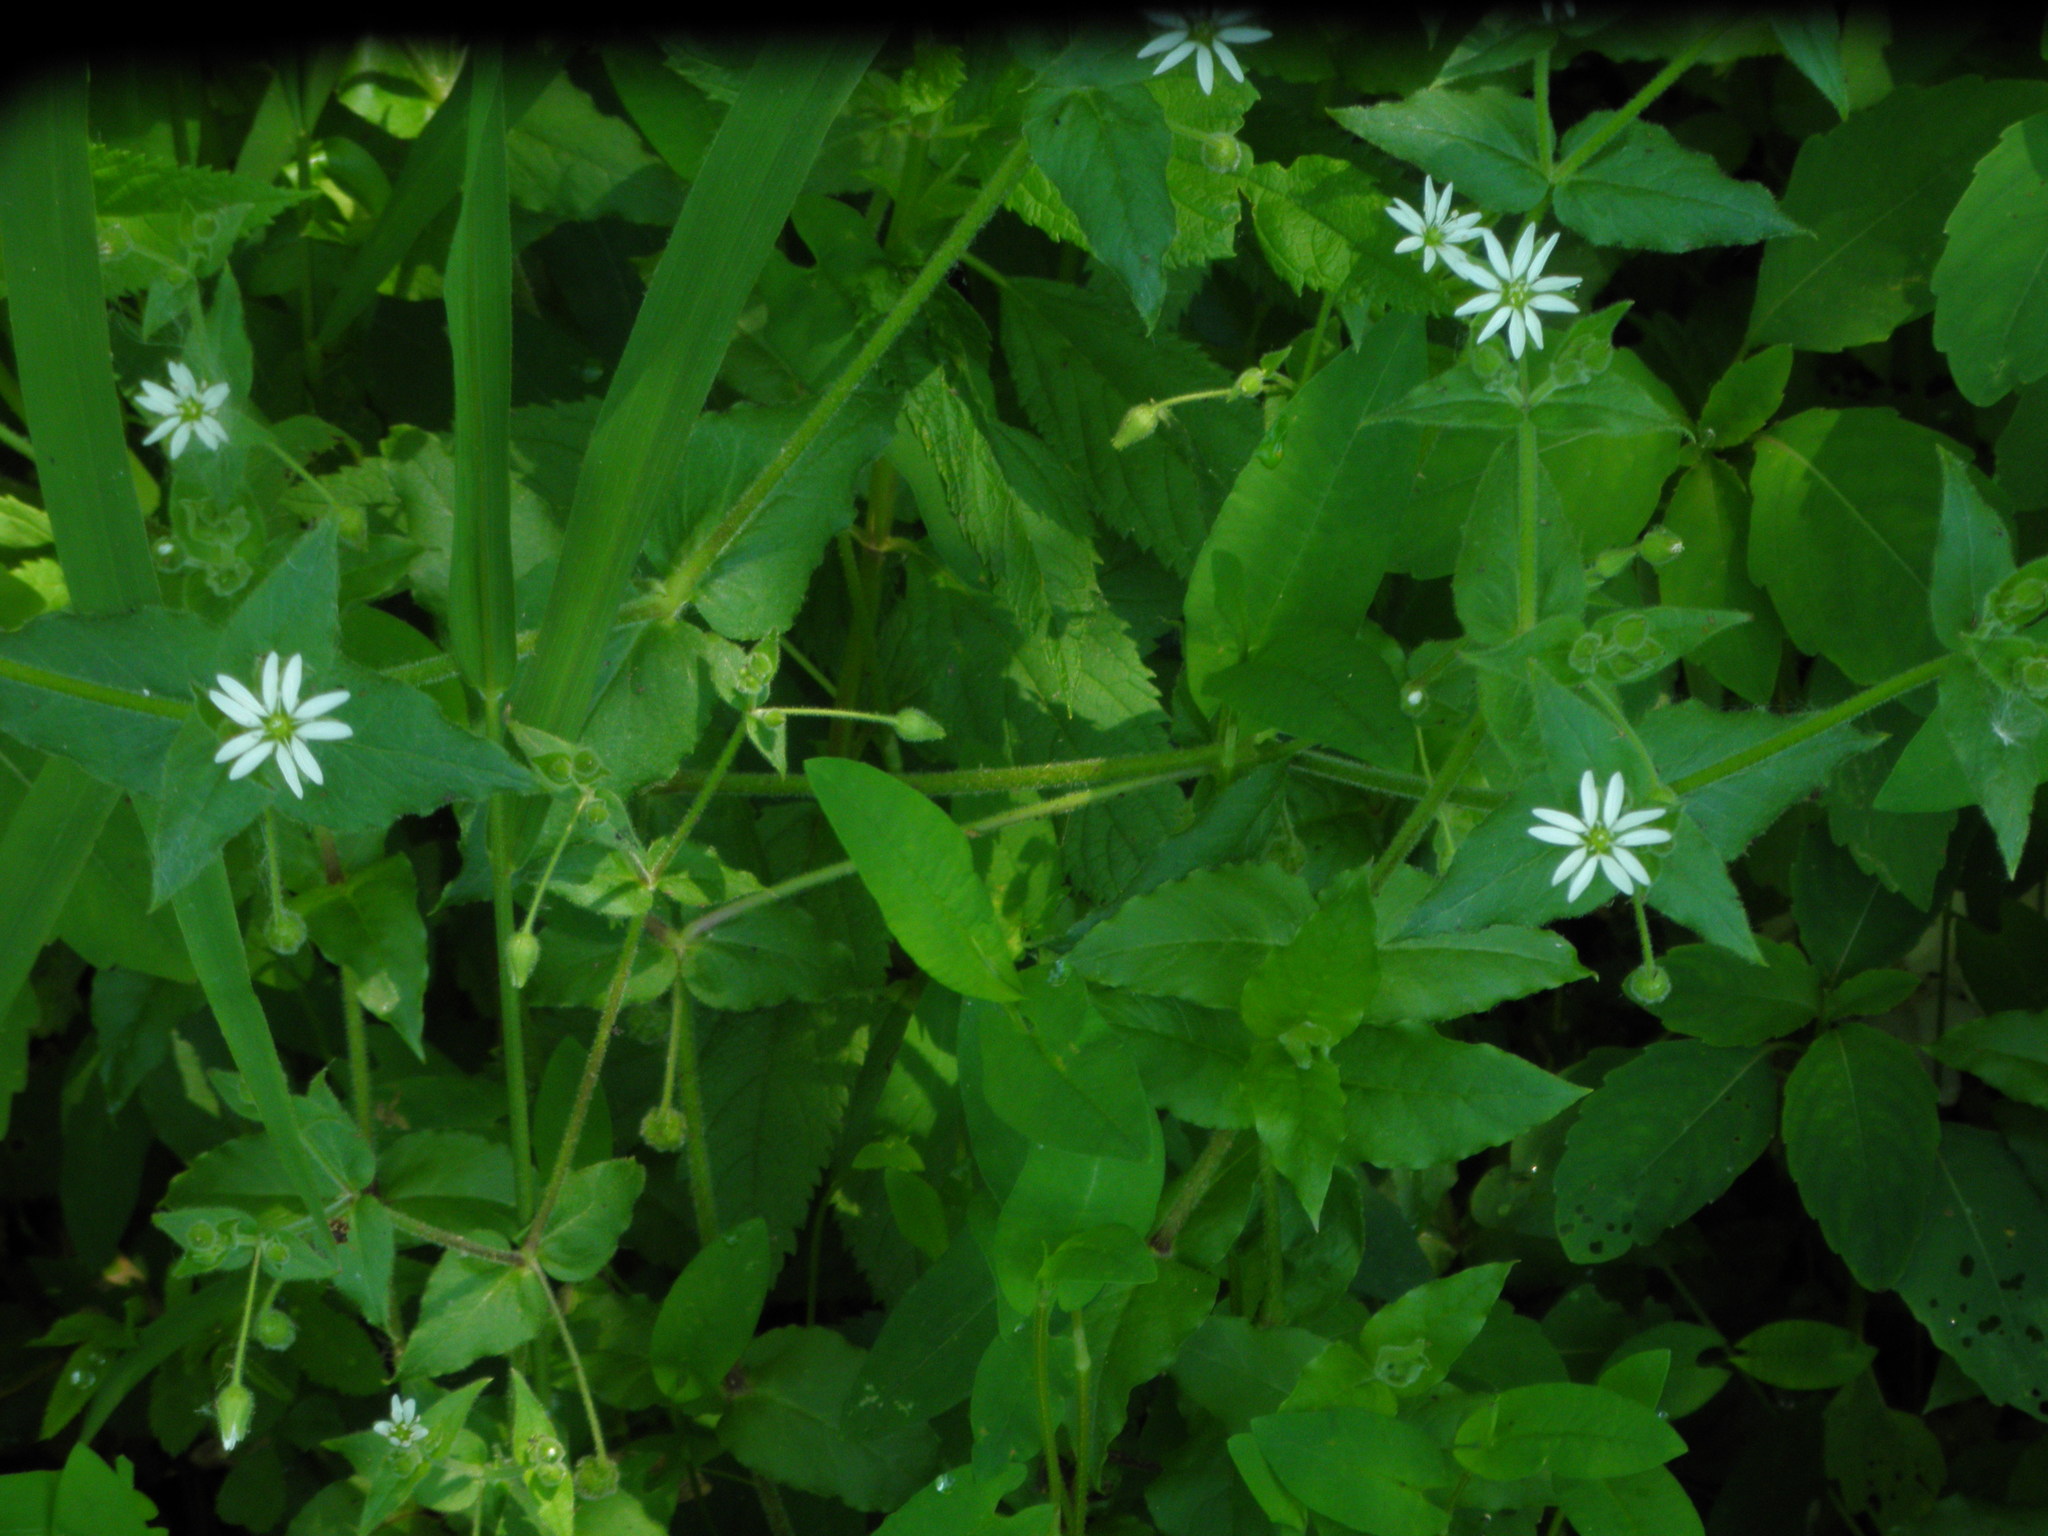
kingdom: Plantae
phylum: Tracheophyta
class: Magnoliopsida
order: Caryophyllales
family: Caryophyllaceae
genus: Stellaria
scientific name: Stellaria aquatica
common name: Water chickweed
